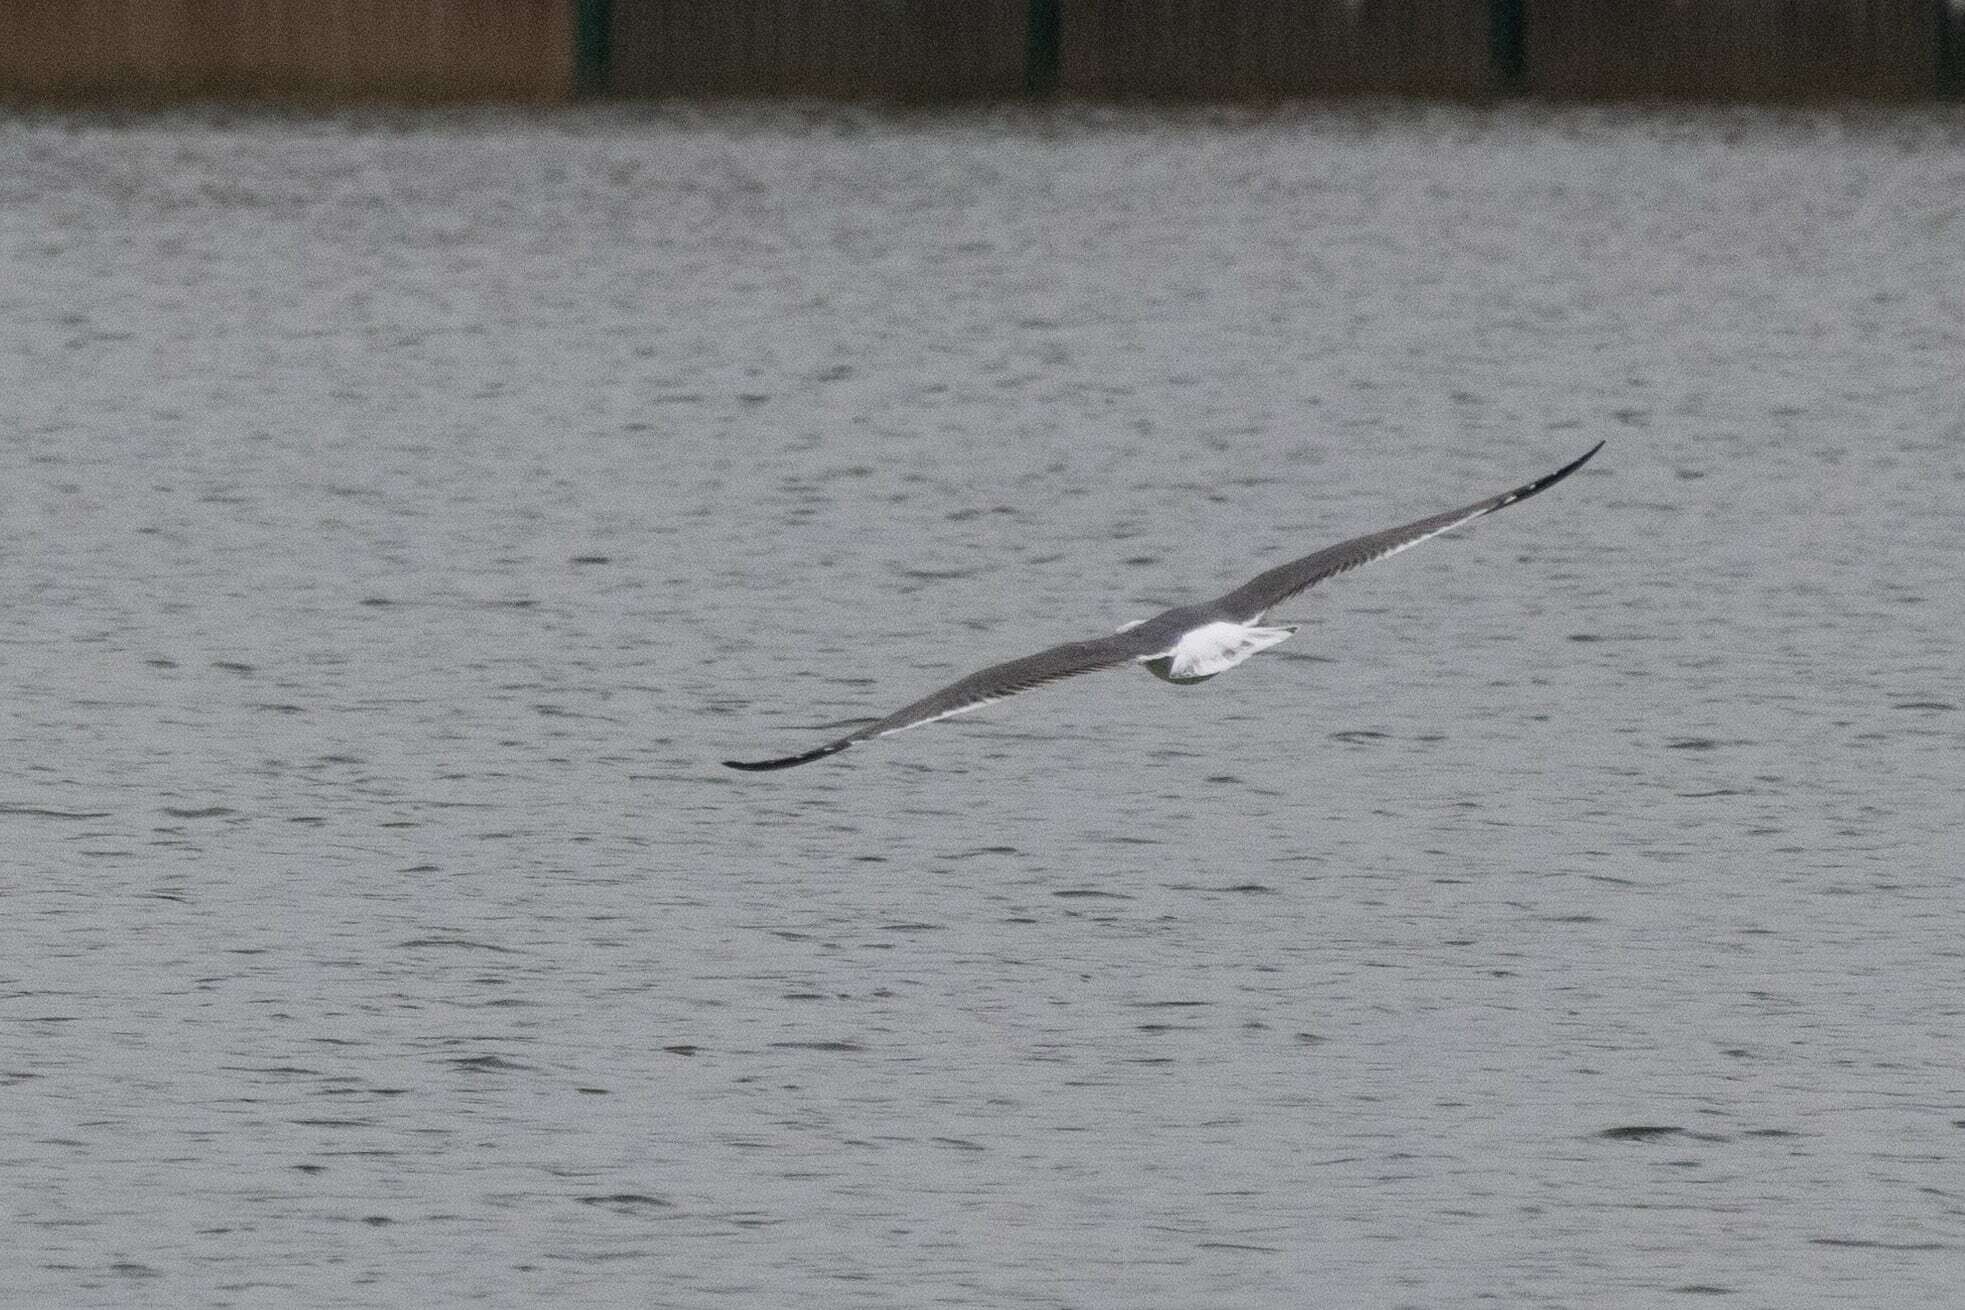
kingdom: Animalia
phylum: Chordata
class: Aves
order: Charadriiformes
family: Laridae
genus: Larus
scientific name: Larus fuscus
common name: Lesser black-backed gull
